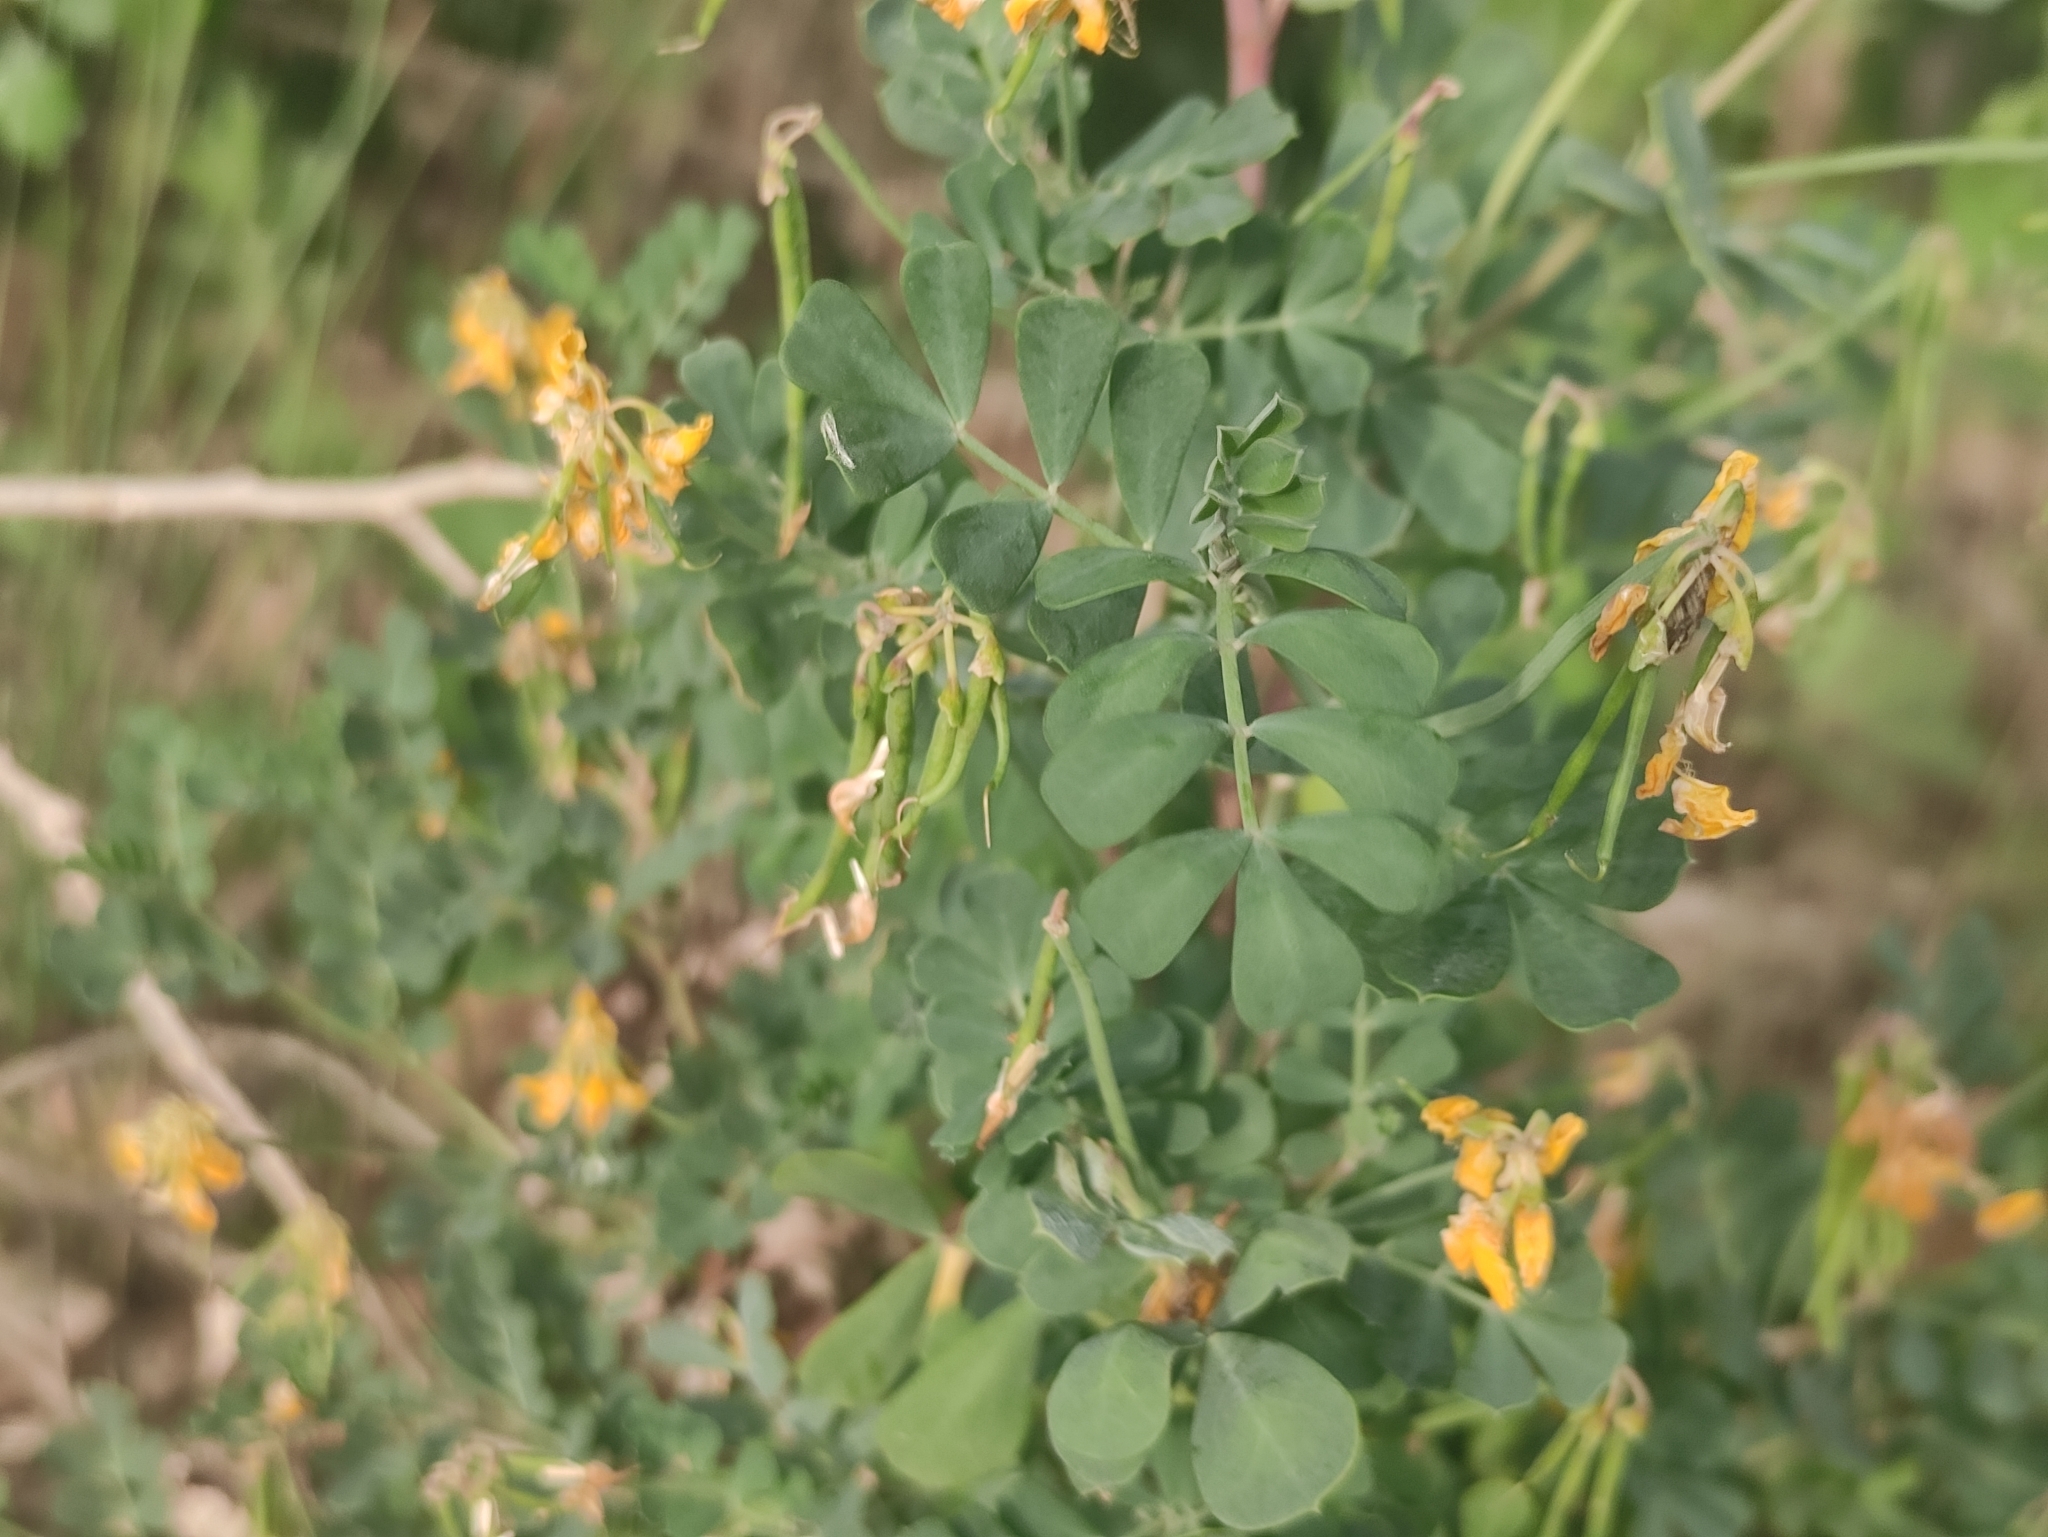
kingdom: Plantae
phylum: Tracheophyta
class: Magnoliopsida
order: Fabales
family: Fabaceae
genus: Coronilla
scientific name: Coronilla valentina
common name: Shrubby scorpion-vetch
